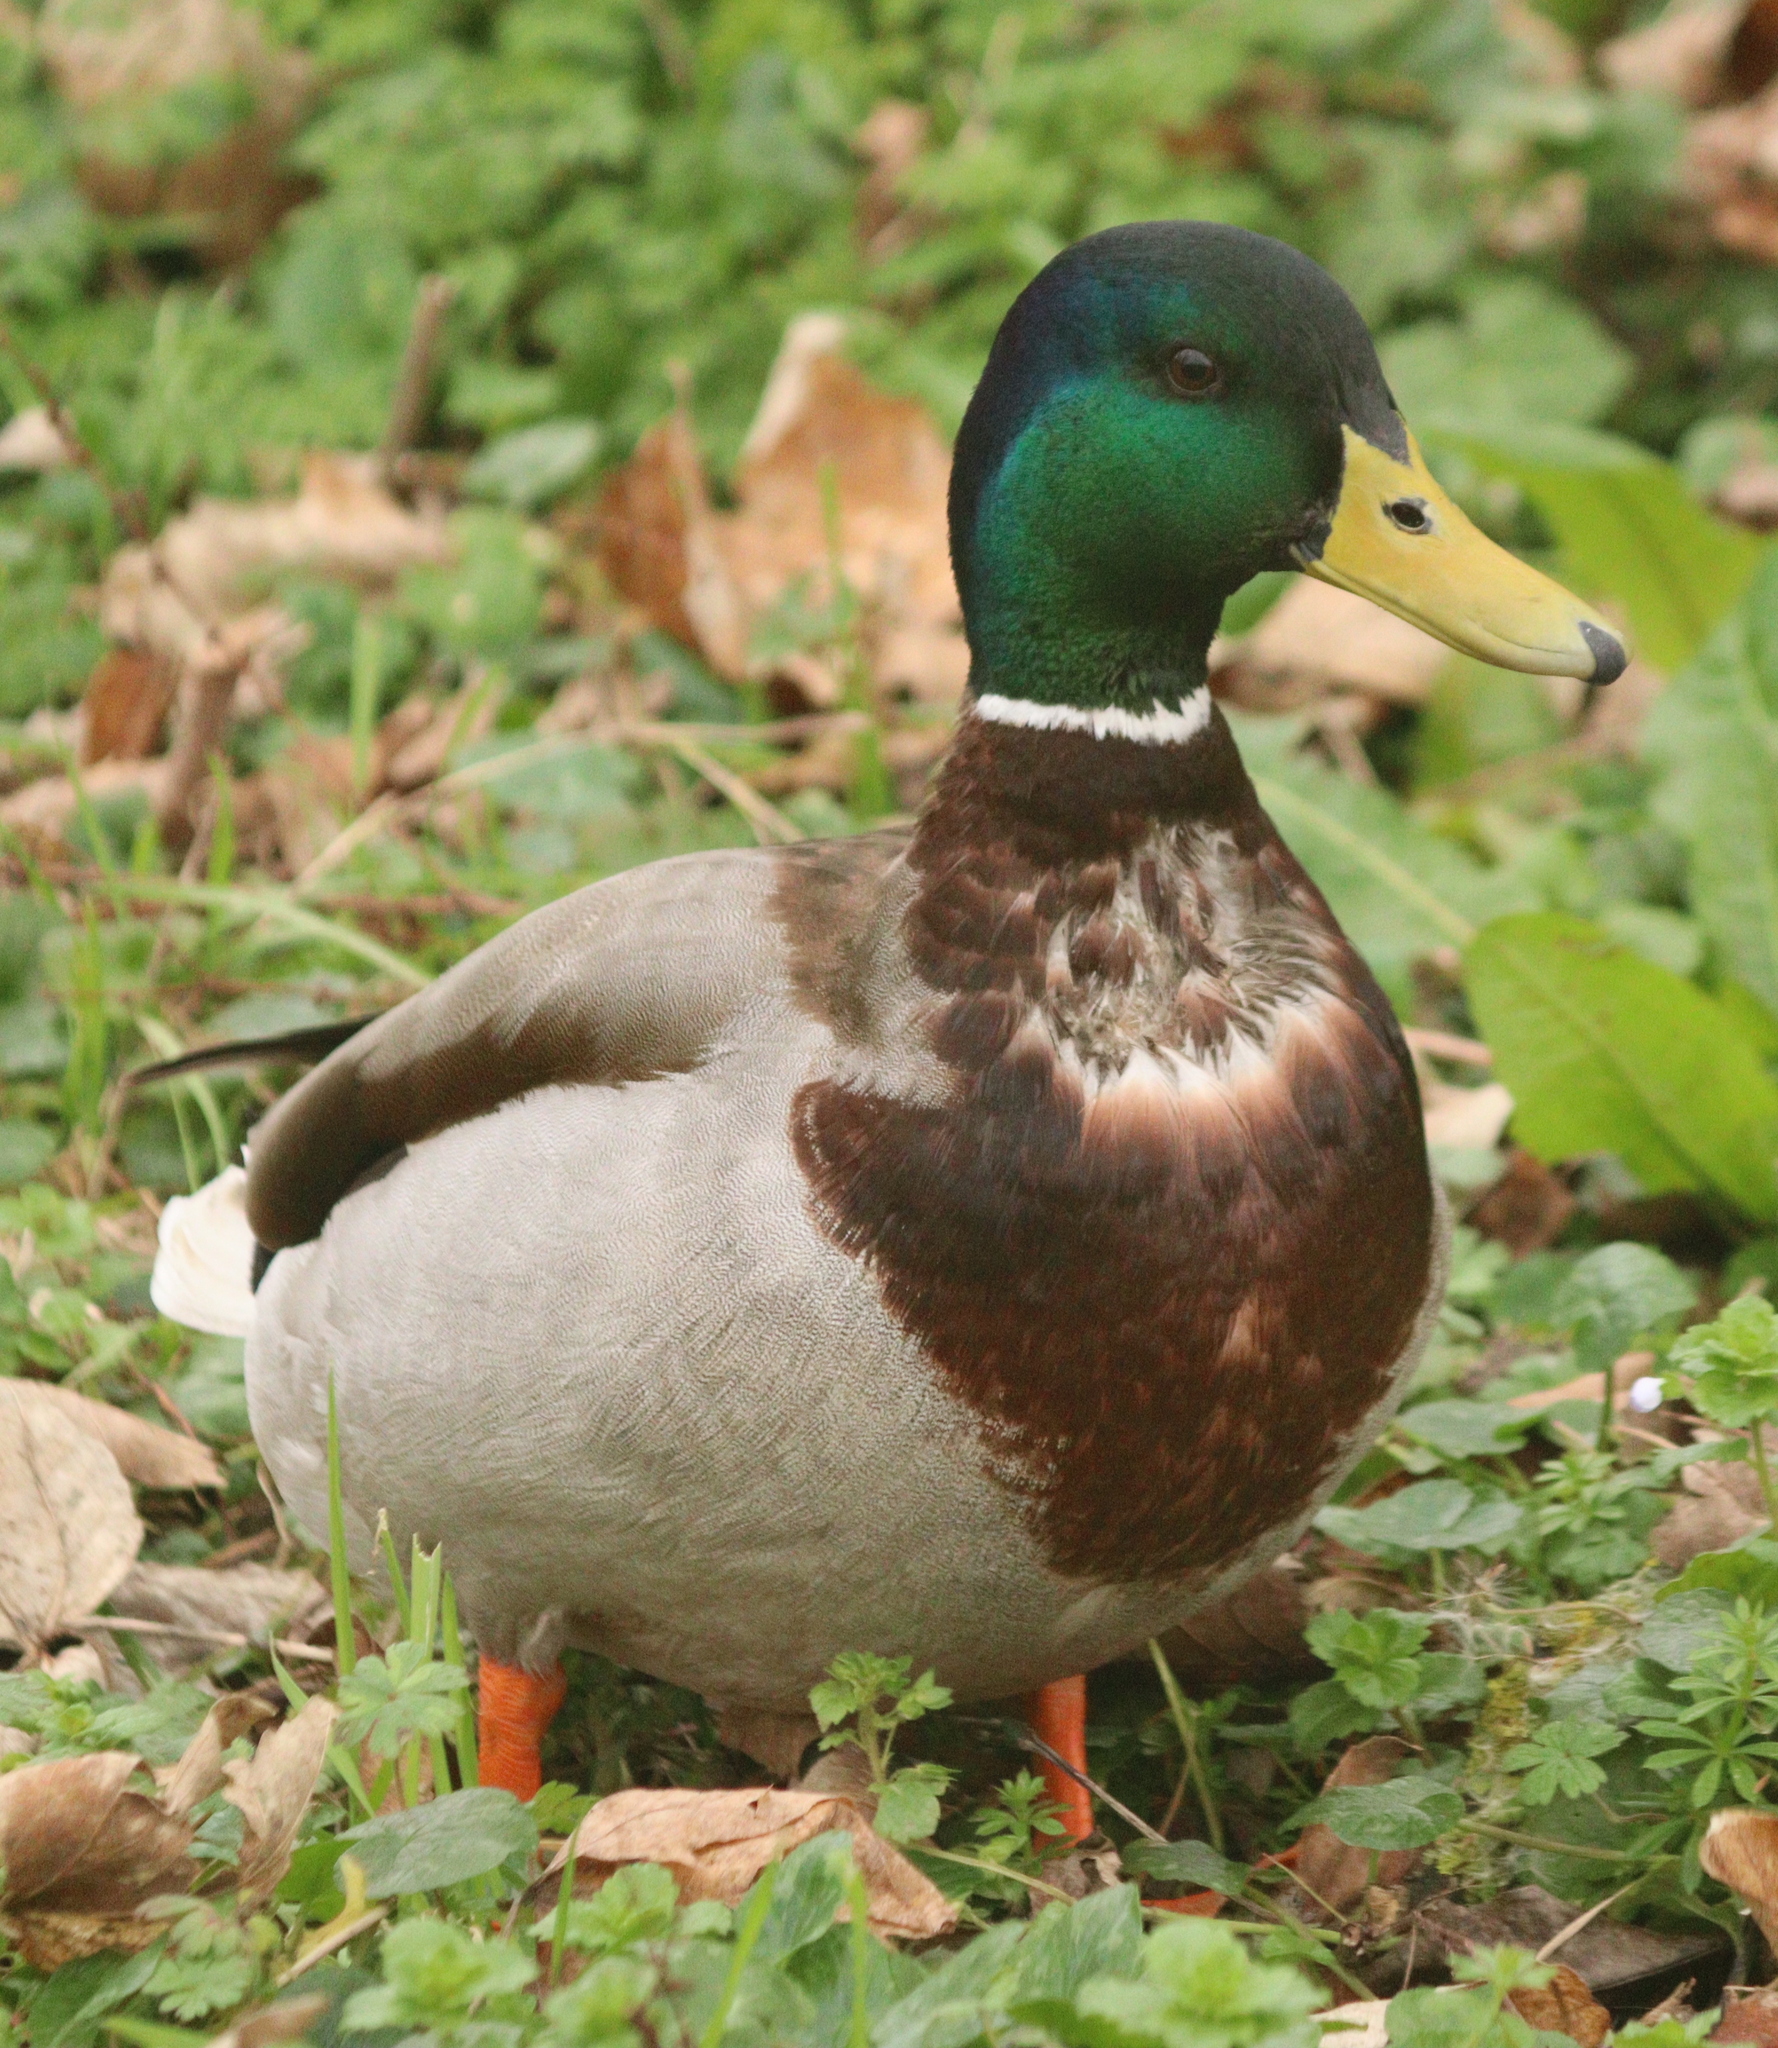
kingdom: Animalia
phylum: Chordata
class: Aves
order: Anseriformes
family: Anatidae
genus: Anas
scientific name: Anas platyrhynchos
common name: Mallard
